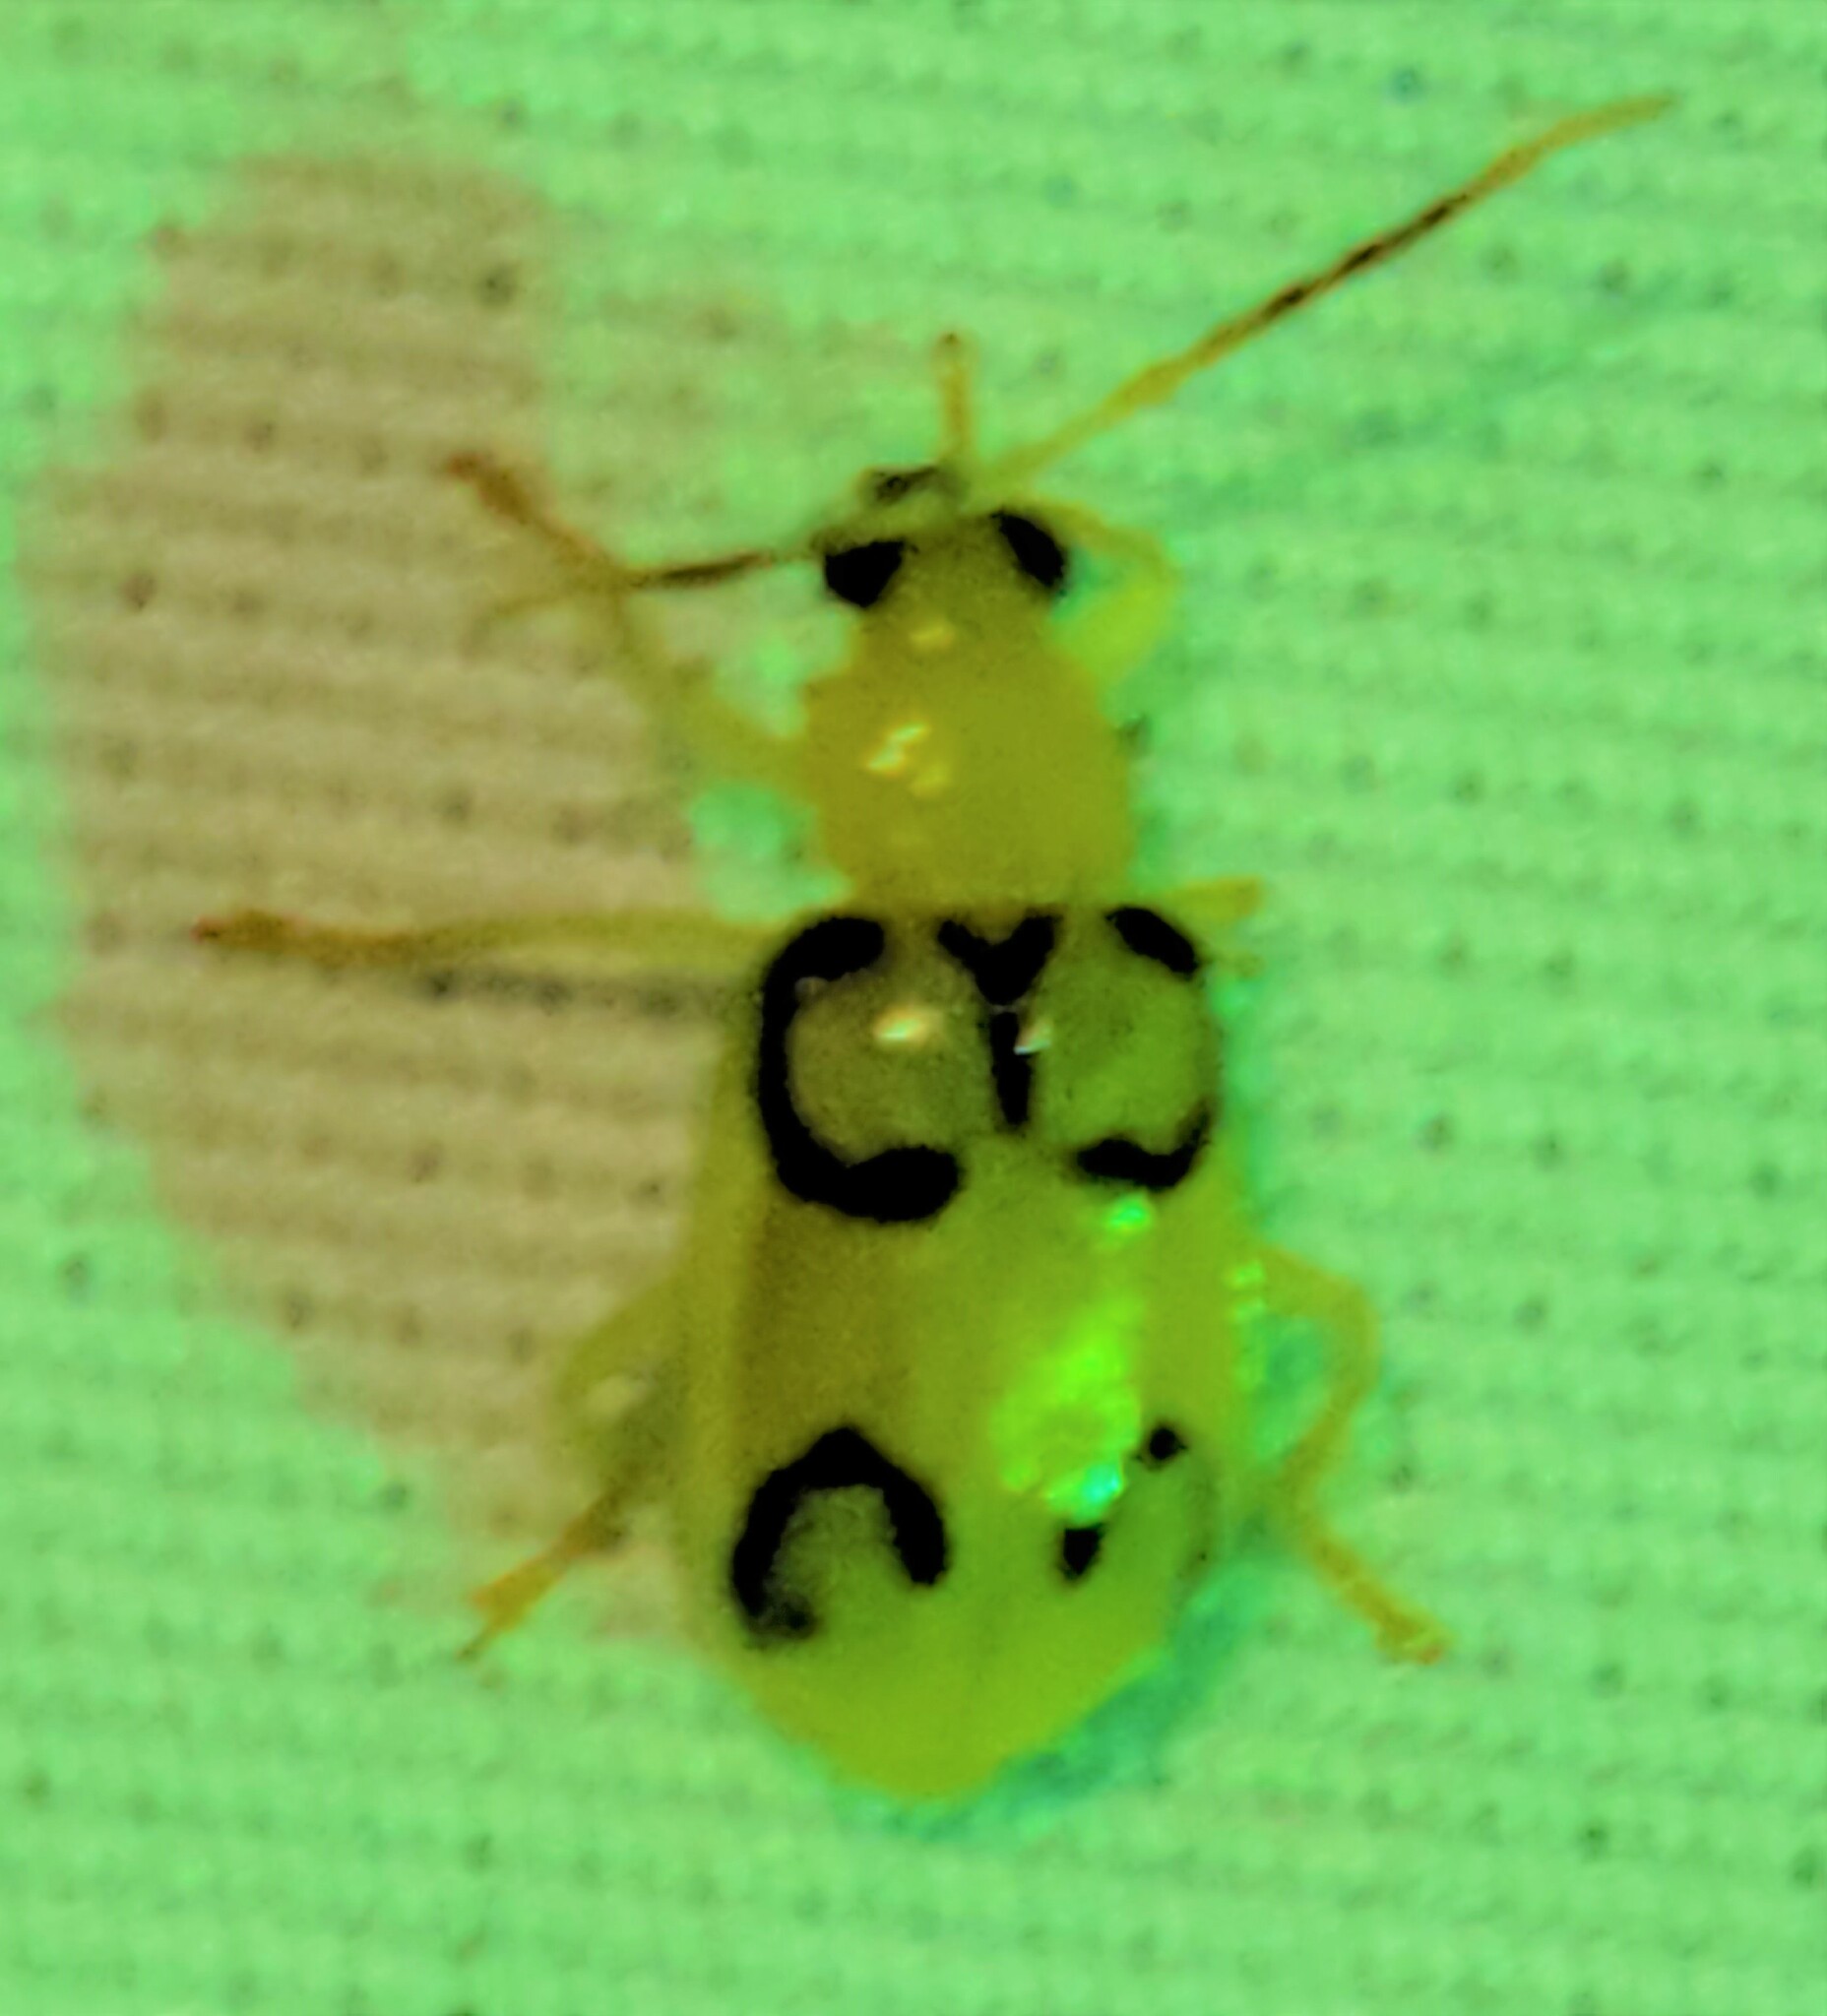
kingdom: Animalia
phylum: Arthropoda
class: Insecta
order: Coleoptera
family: Chrysomelidae
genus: Diabrotica
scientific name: Diabrotica
